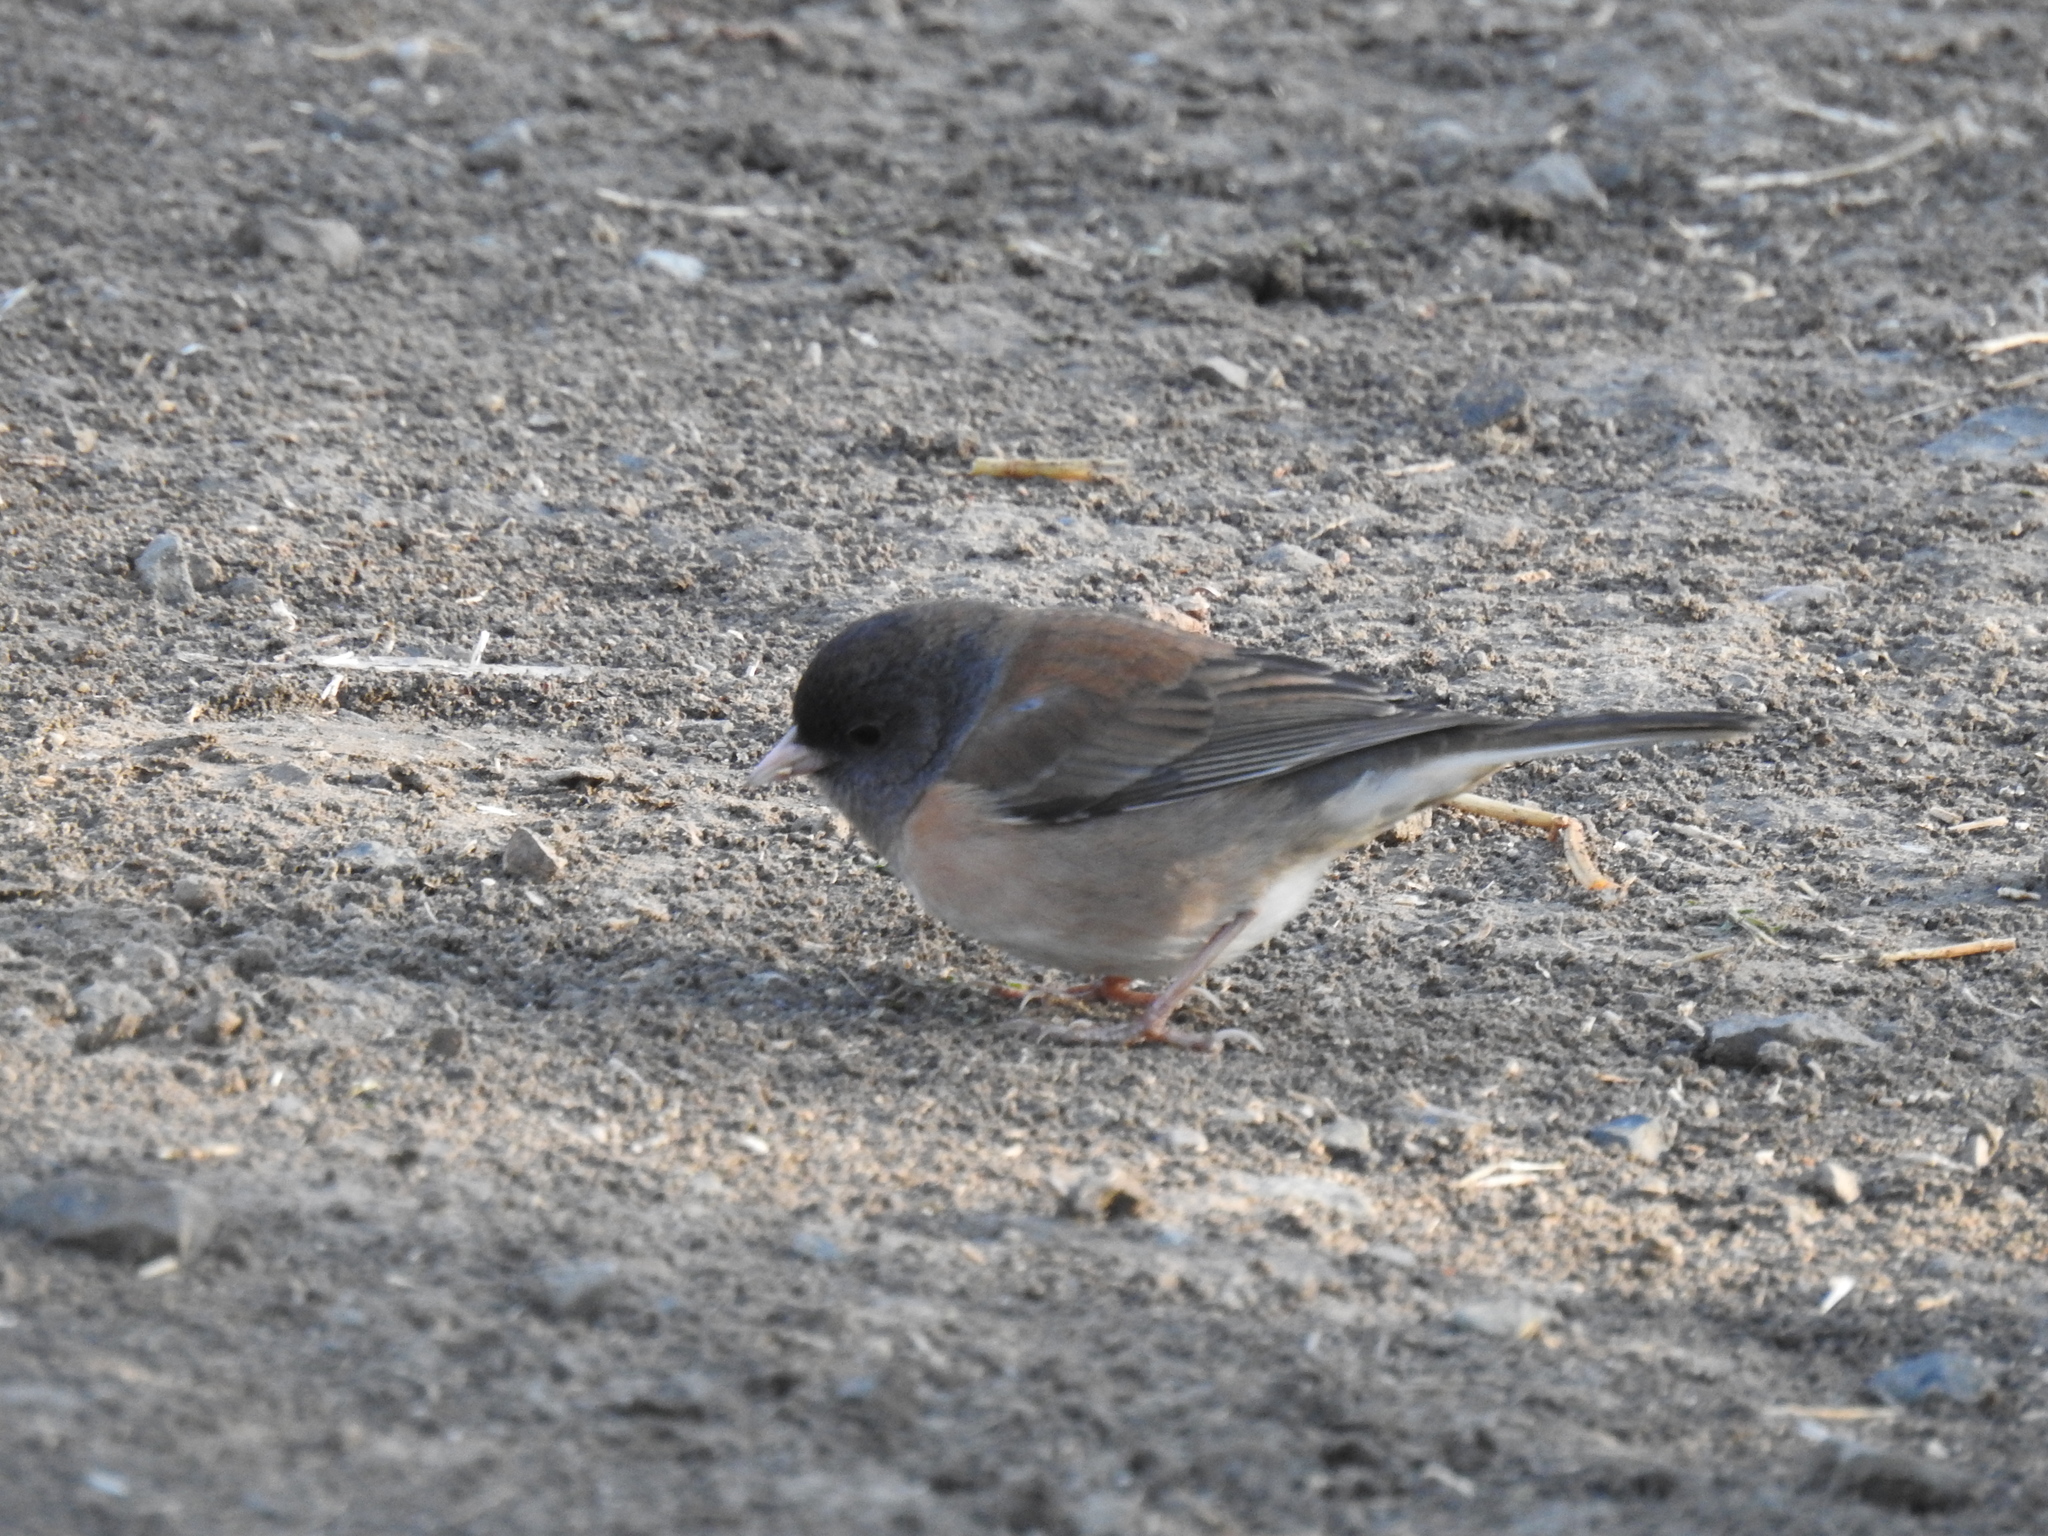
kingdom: Animalia
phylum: Chordata
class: Aves
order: Passeriformes
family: Passerellidae
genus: Junco
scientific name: Junco hyemalis
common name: Dark-eyed junco
